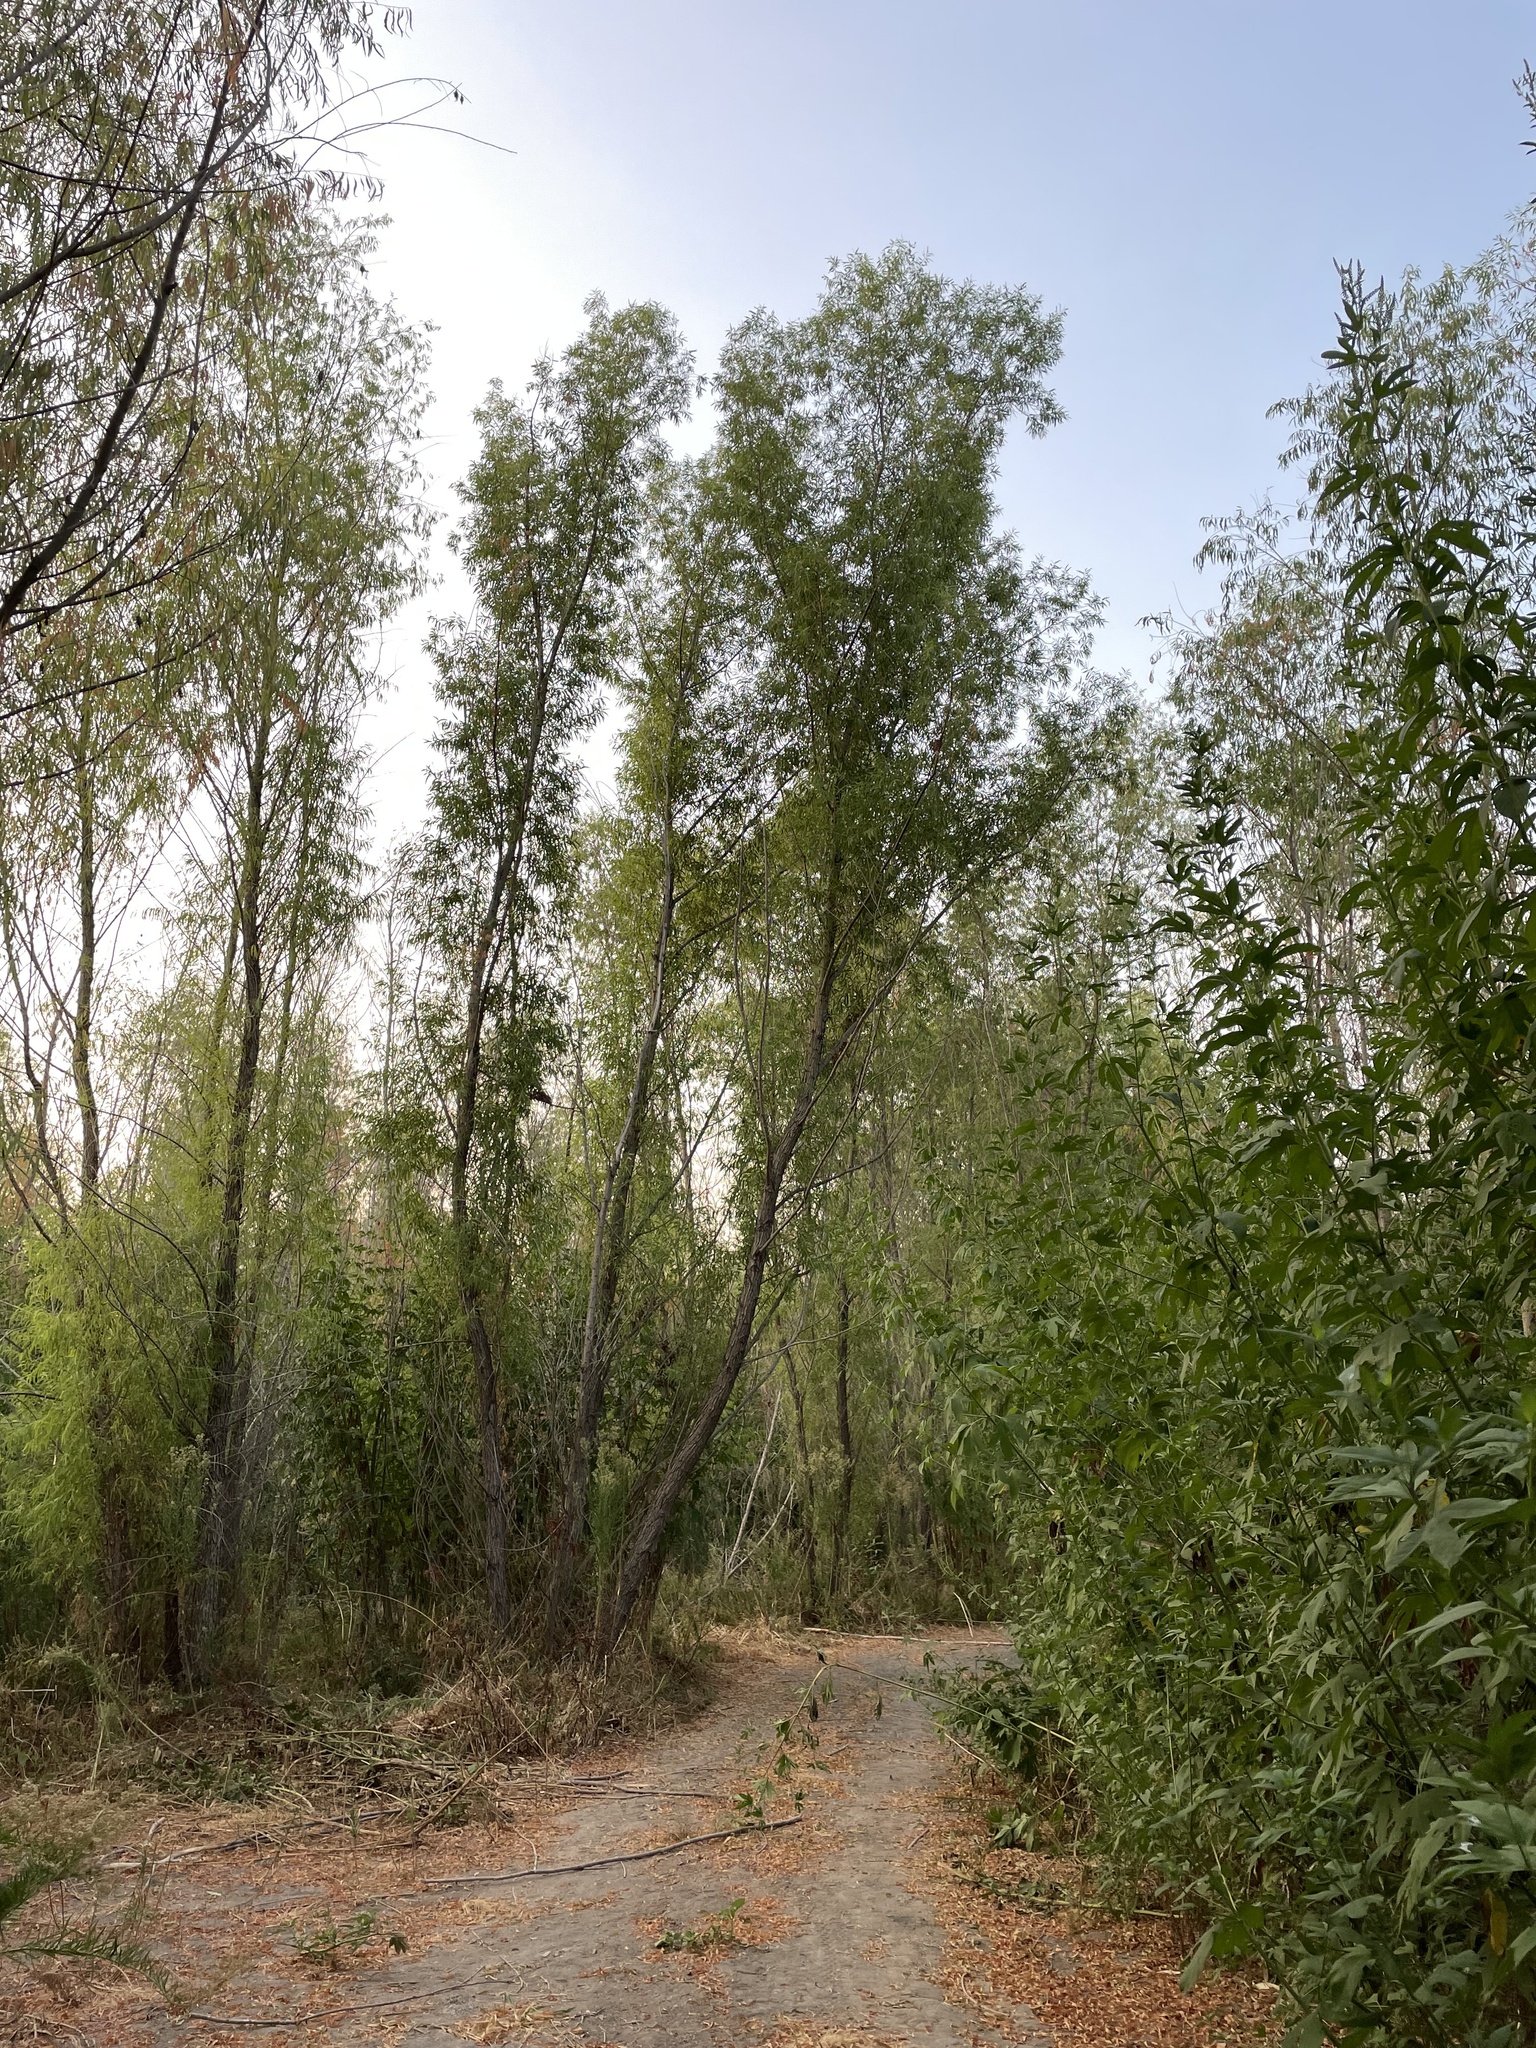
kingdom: Plantae
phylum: Tracheophyta
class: Magnoliopsida
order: Malpighiales
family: Salicaceae
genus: Salix
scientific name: Salix nigra
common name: Black willow
